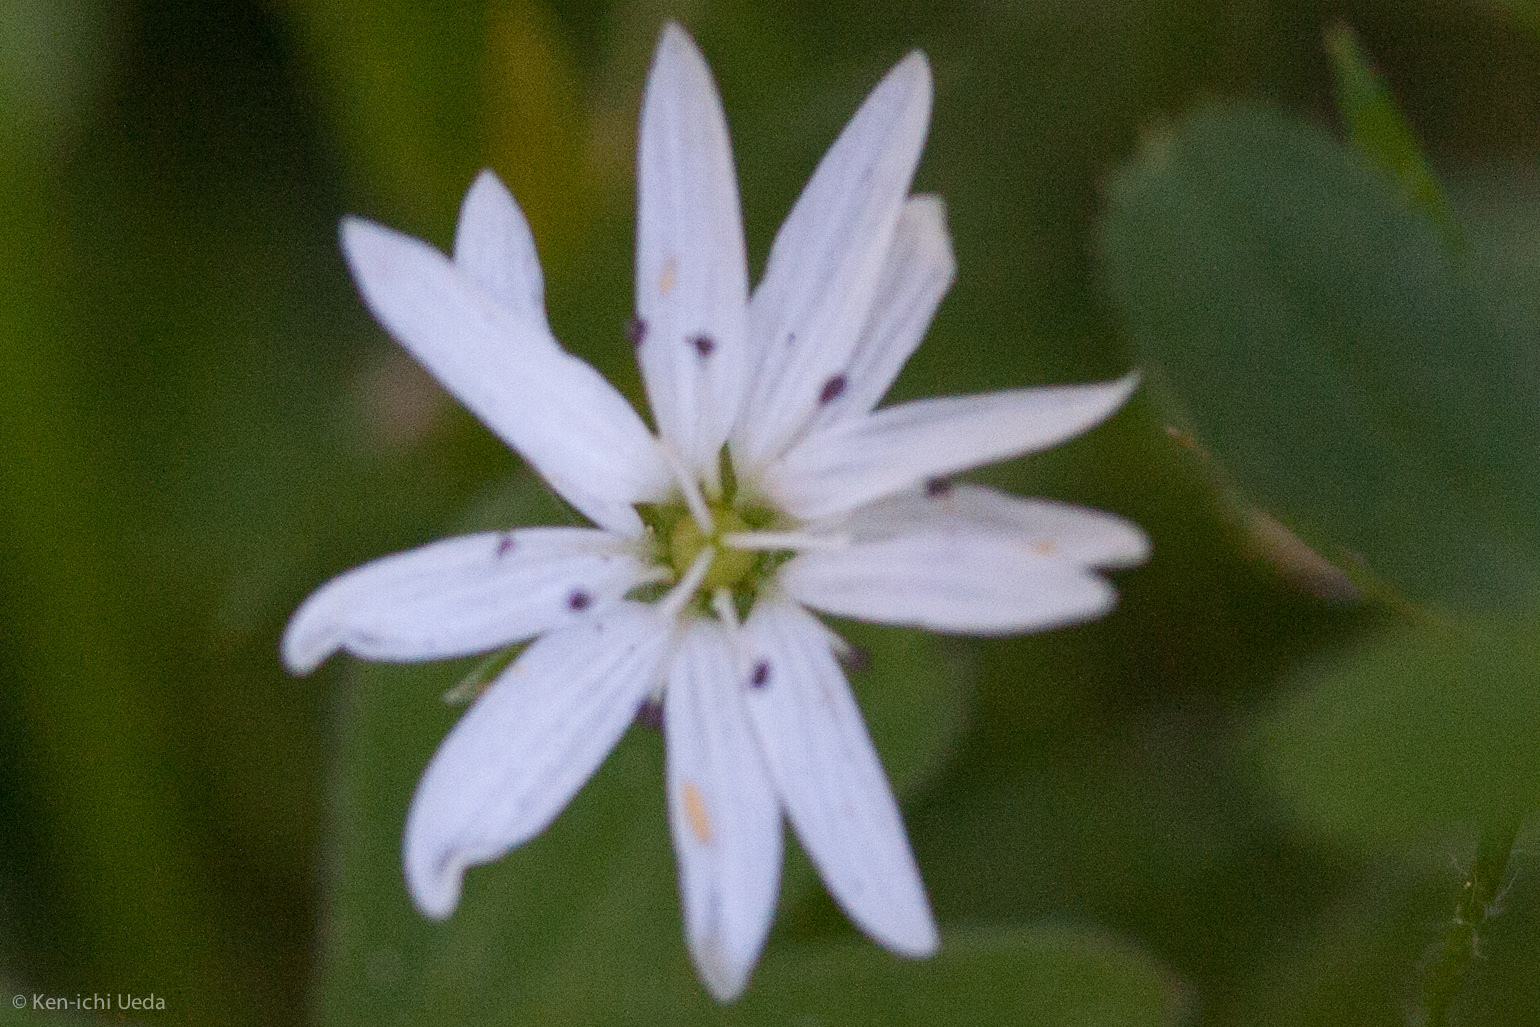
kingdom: Plantae
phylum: Tracheophyta
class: Magnoliopsida
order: Caryophyllales
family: Caryophyllaceae
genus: Stellaria
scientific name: Stellaria longipes
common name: Goldie's starwort
